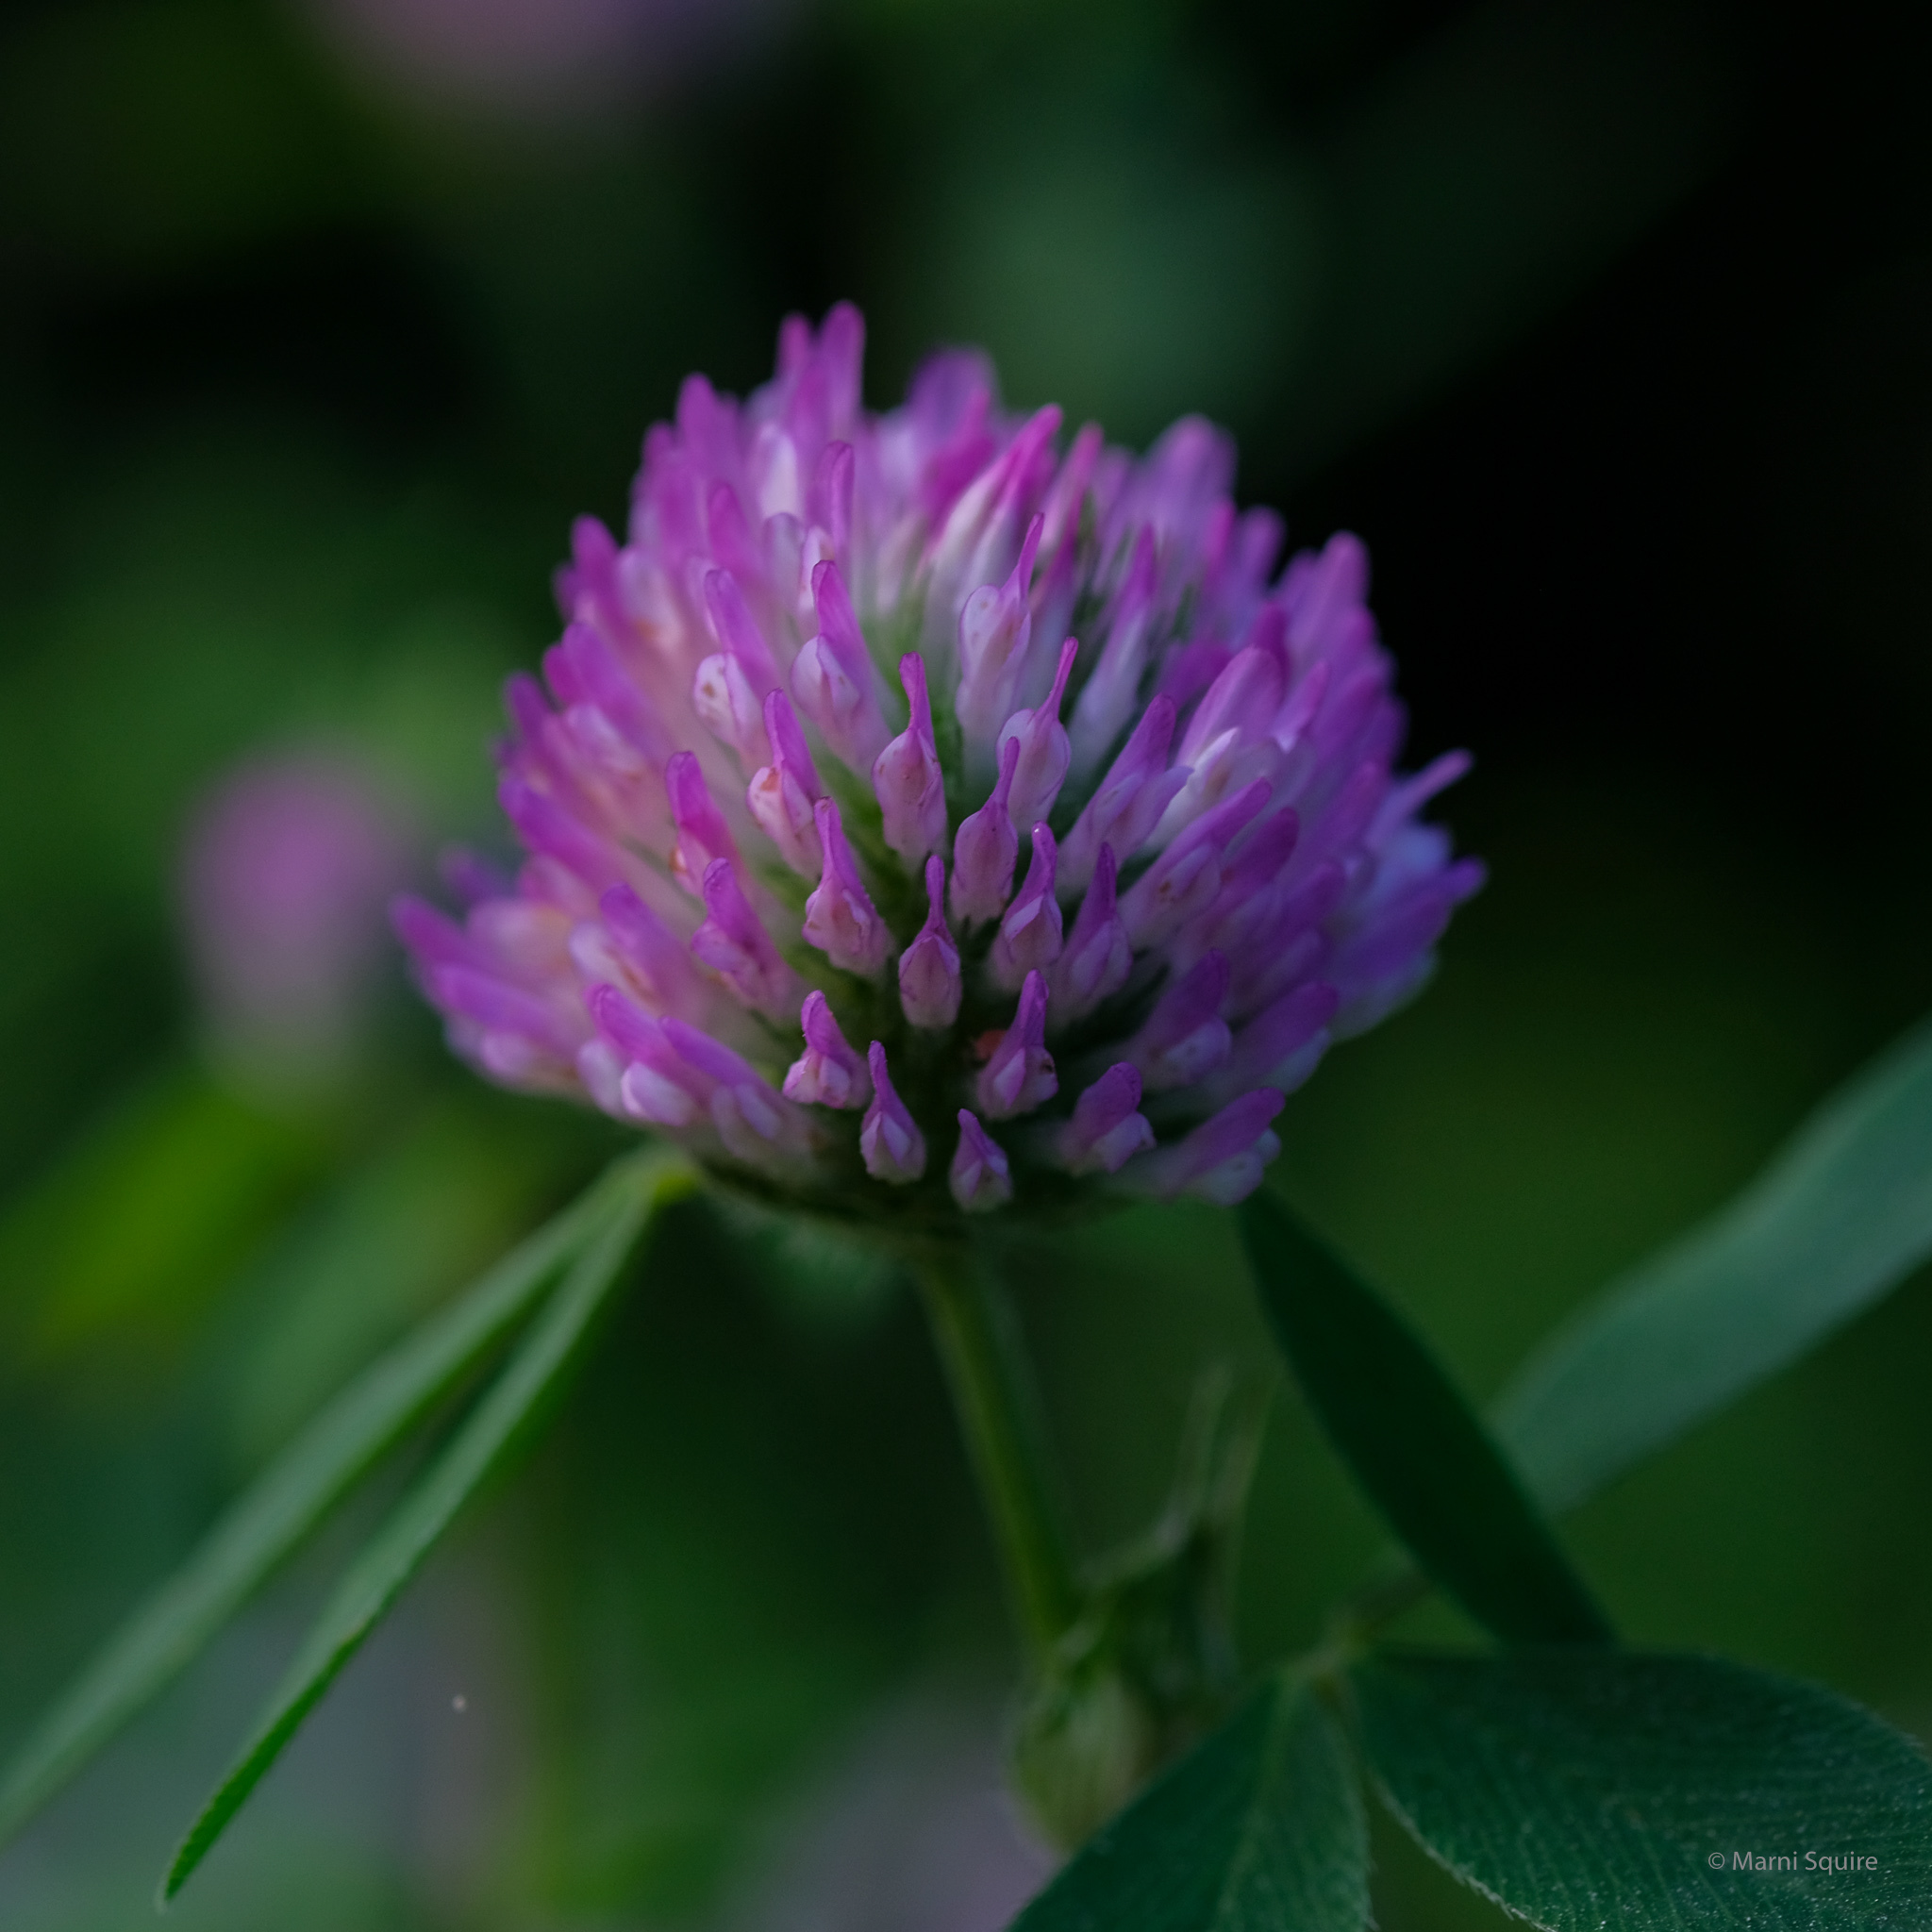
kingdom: Plantae
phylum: Tracheophyta
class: Magnoliopsida
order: Fabales
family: Fabaceae
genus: Trifolium
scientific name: Trifolium pratense
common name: Red clover
